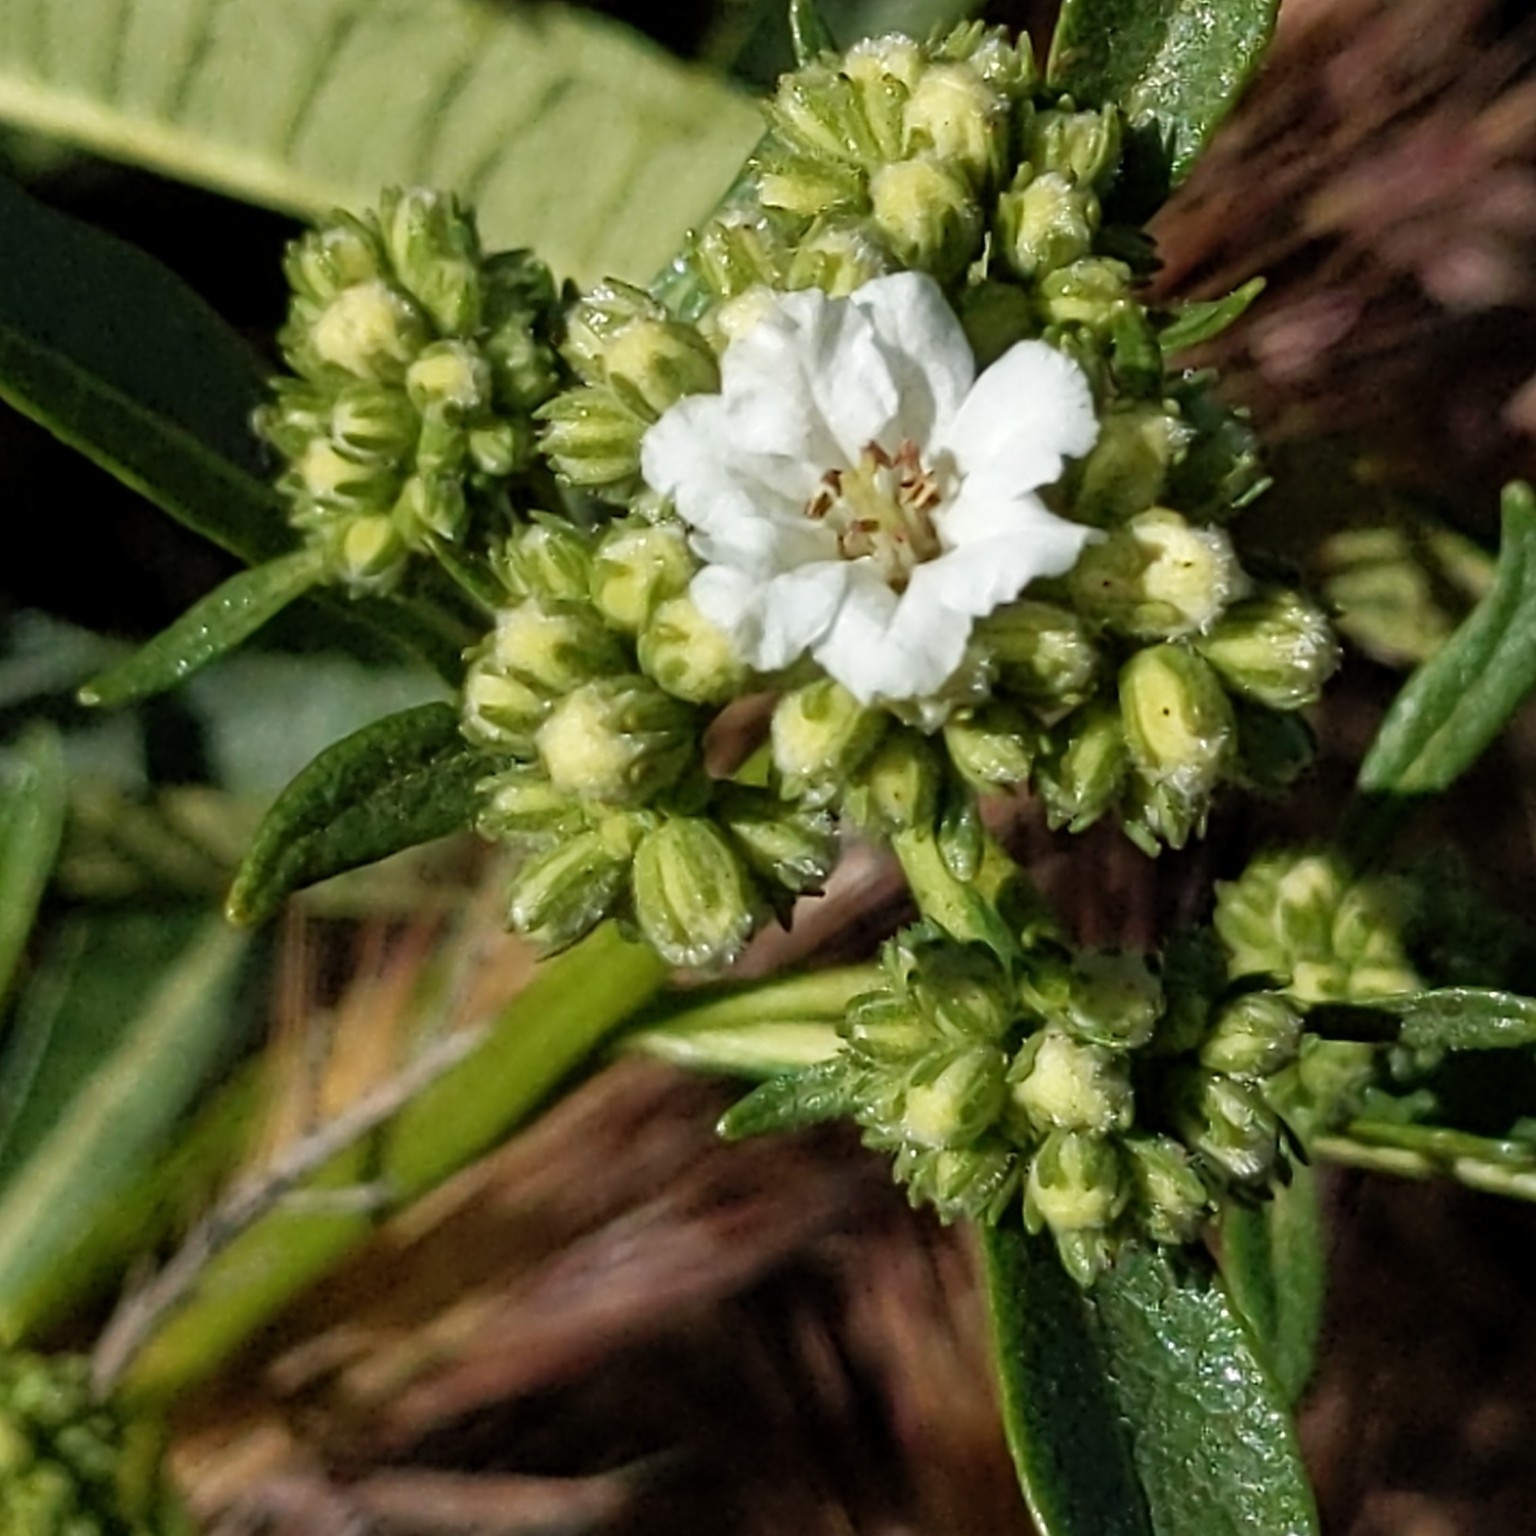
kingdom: Plantae
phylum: Tracheophyta
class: Magnoliopsida
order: Boraginales
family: Namaceae
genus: Eriodictyon
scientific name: Eriodictyon trichocalyx
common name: Hairy yerba-santa
